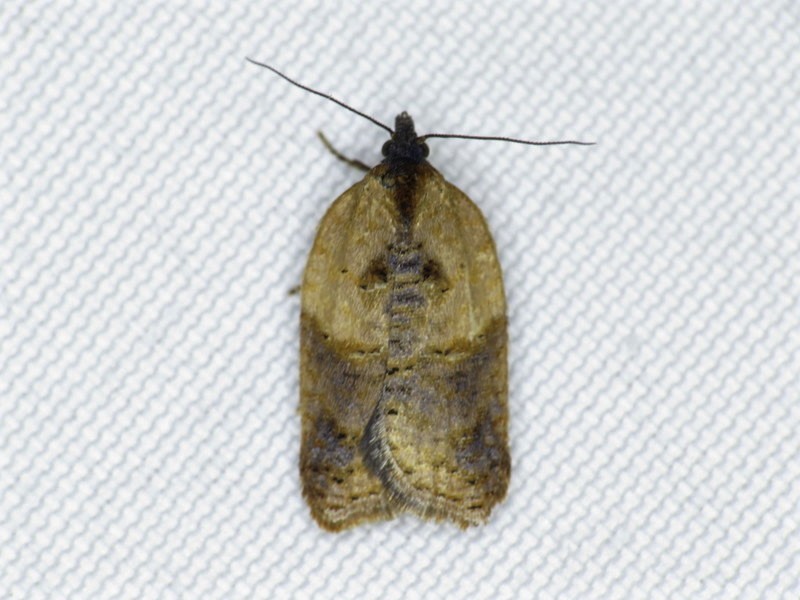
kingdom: Animalia
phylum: Arthropoda
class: Insecta
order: Lepidoptera
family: Tortricidae
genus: Acleris
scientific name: Acleris fragariana
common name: Strawberry acleris
